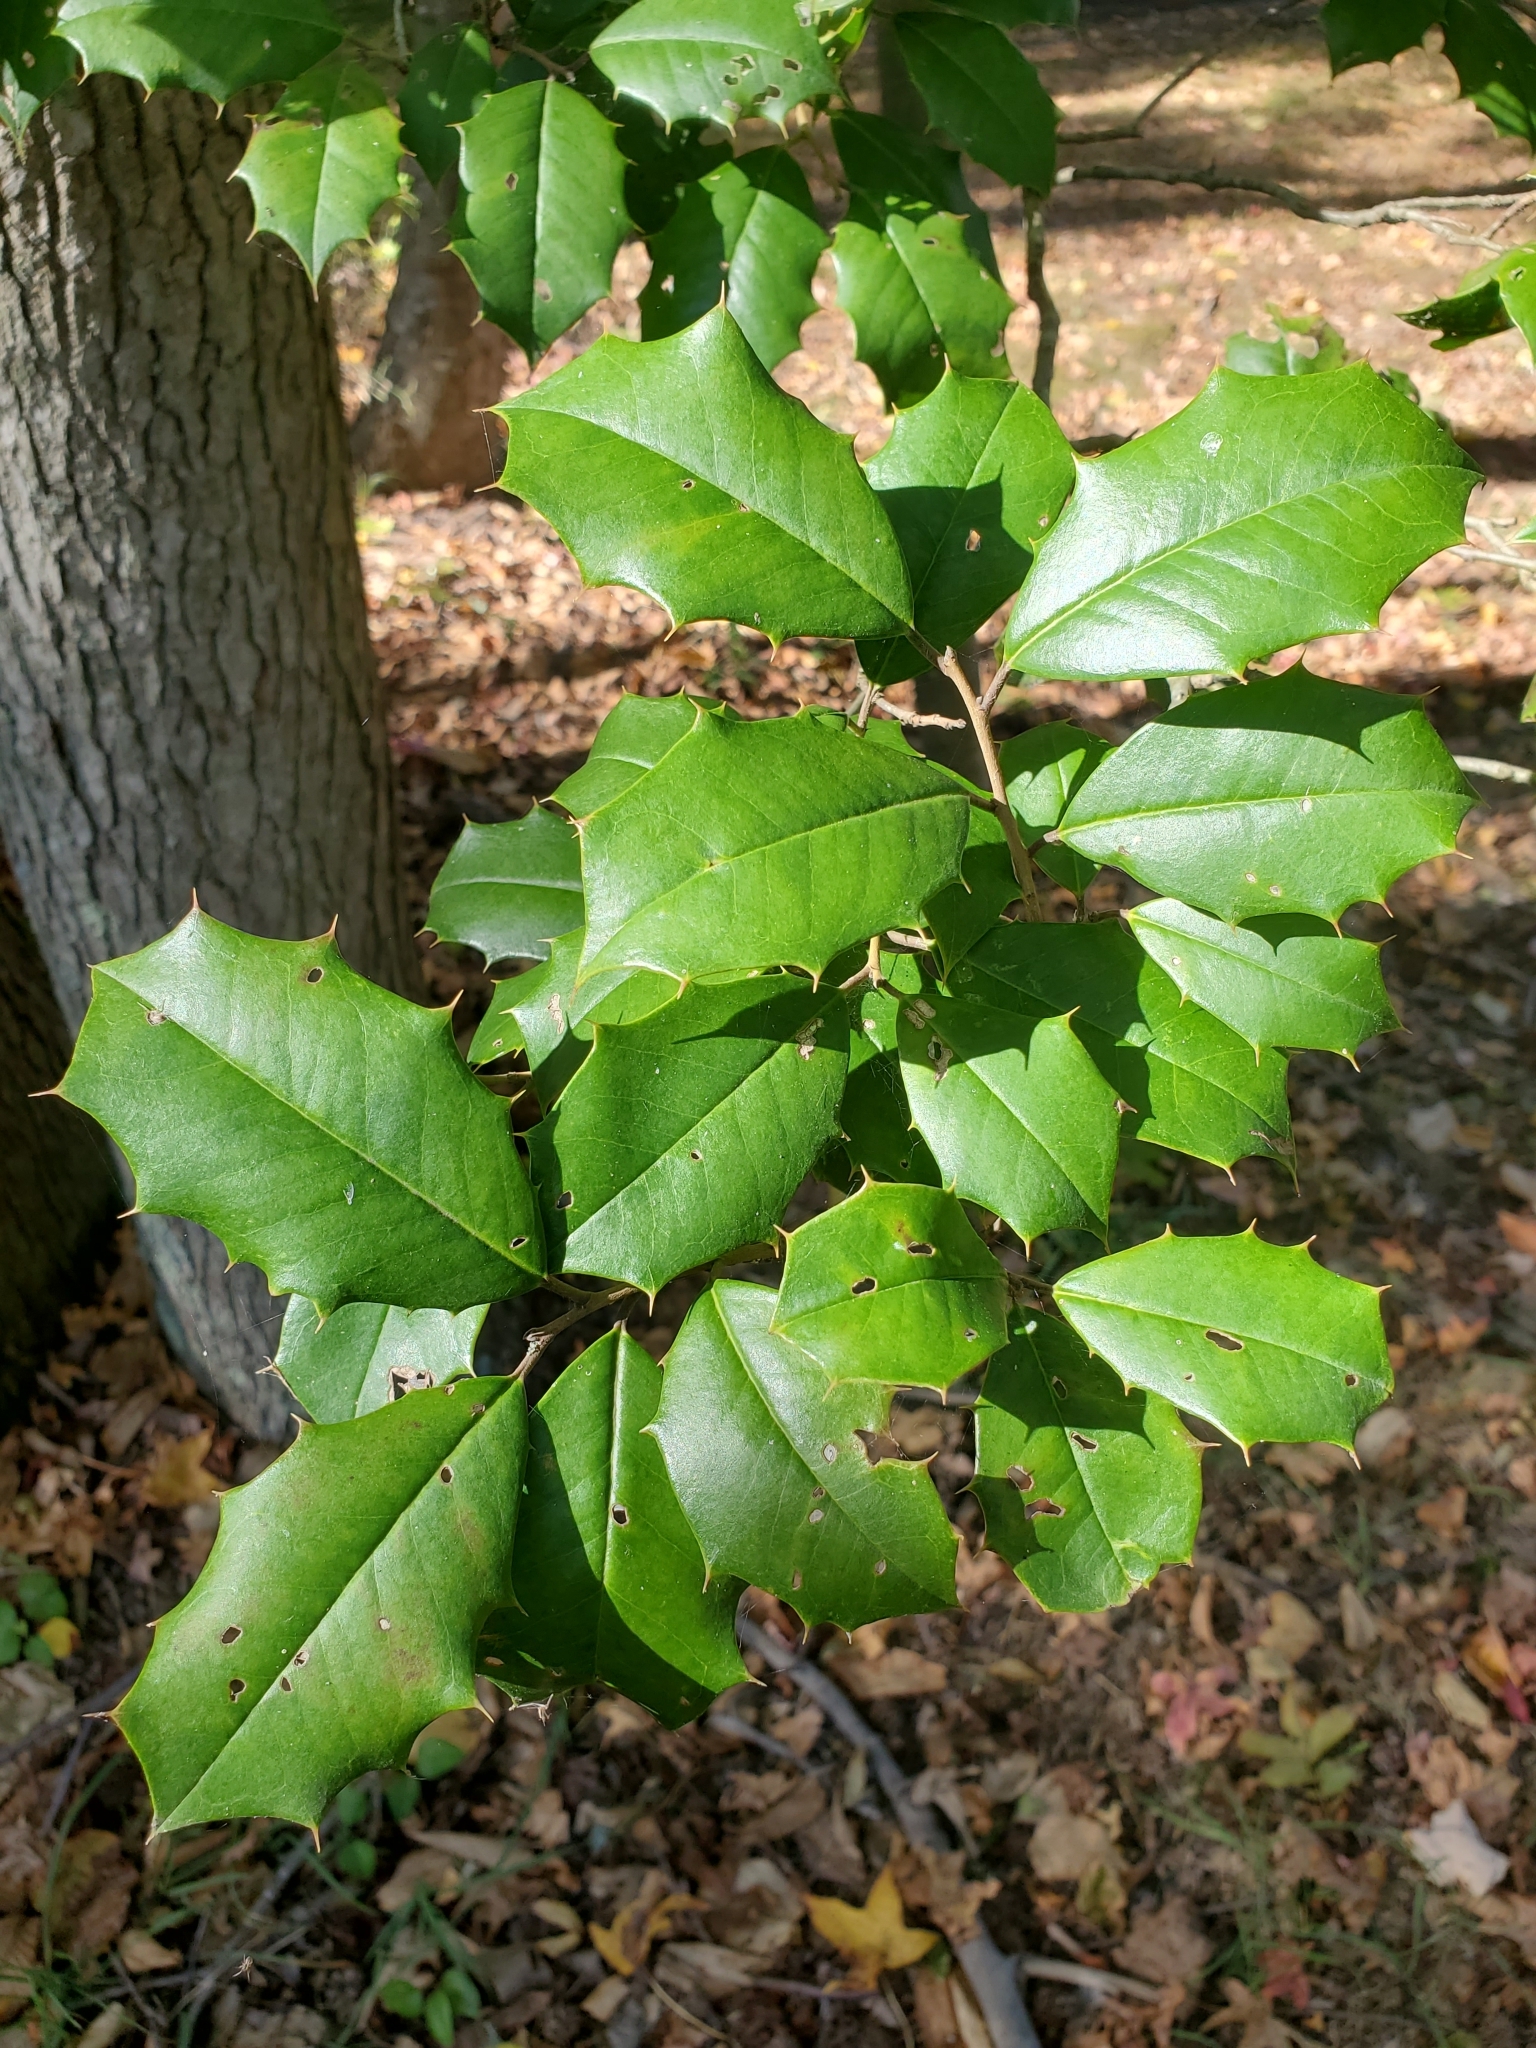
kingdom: Plantae
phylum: Tracheophyta
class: Magnoliopsida
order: Aquifoliales
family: Aquifoliaceae
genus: Ilex
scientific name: Ilex opaca
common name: American holly
